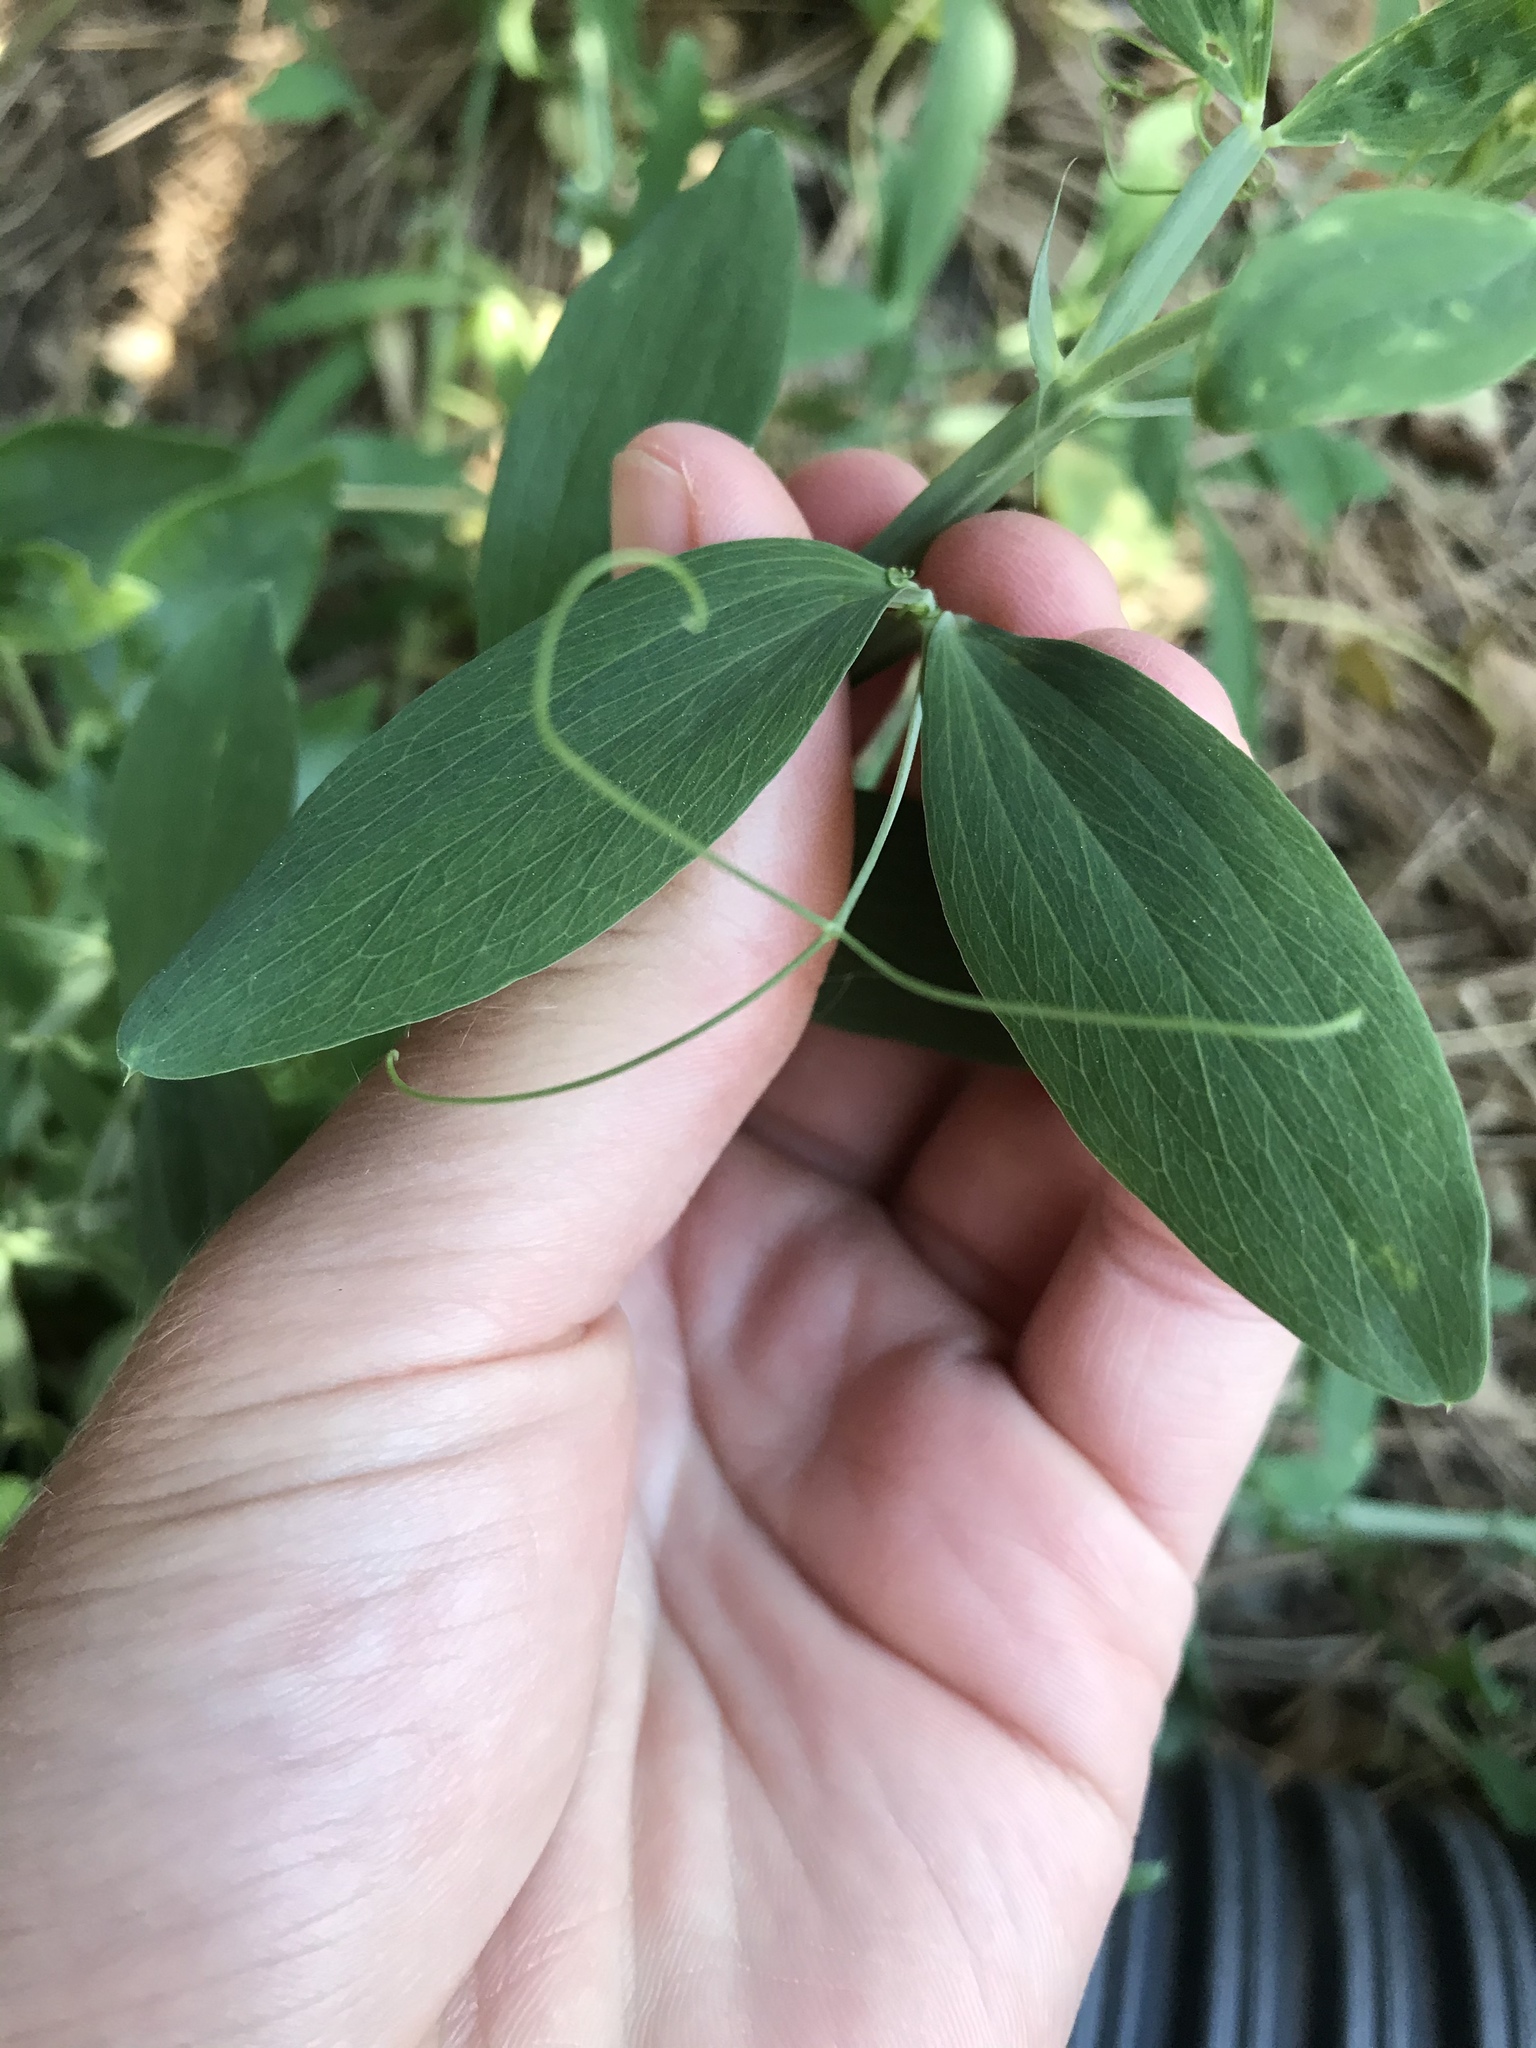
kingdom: Plantae
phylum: Tracheophyta
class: Magnoliopsida
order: Fabales
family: Fabaceae
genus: Lathyrus
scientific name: Lathyrus latifolius
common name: Perennial pea
